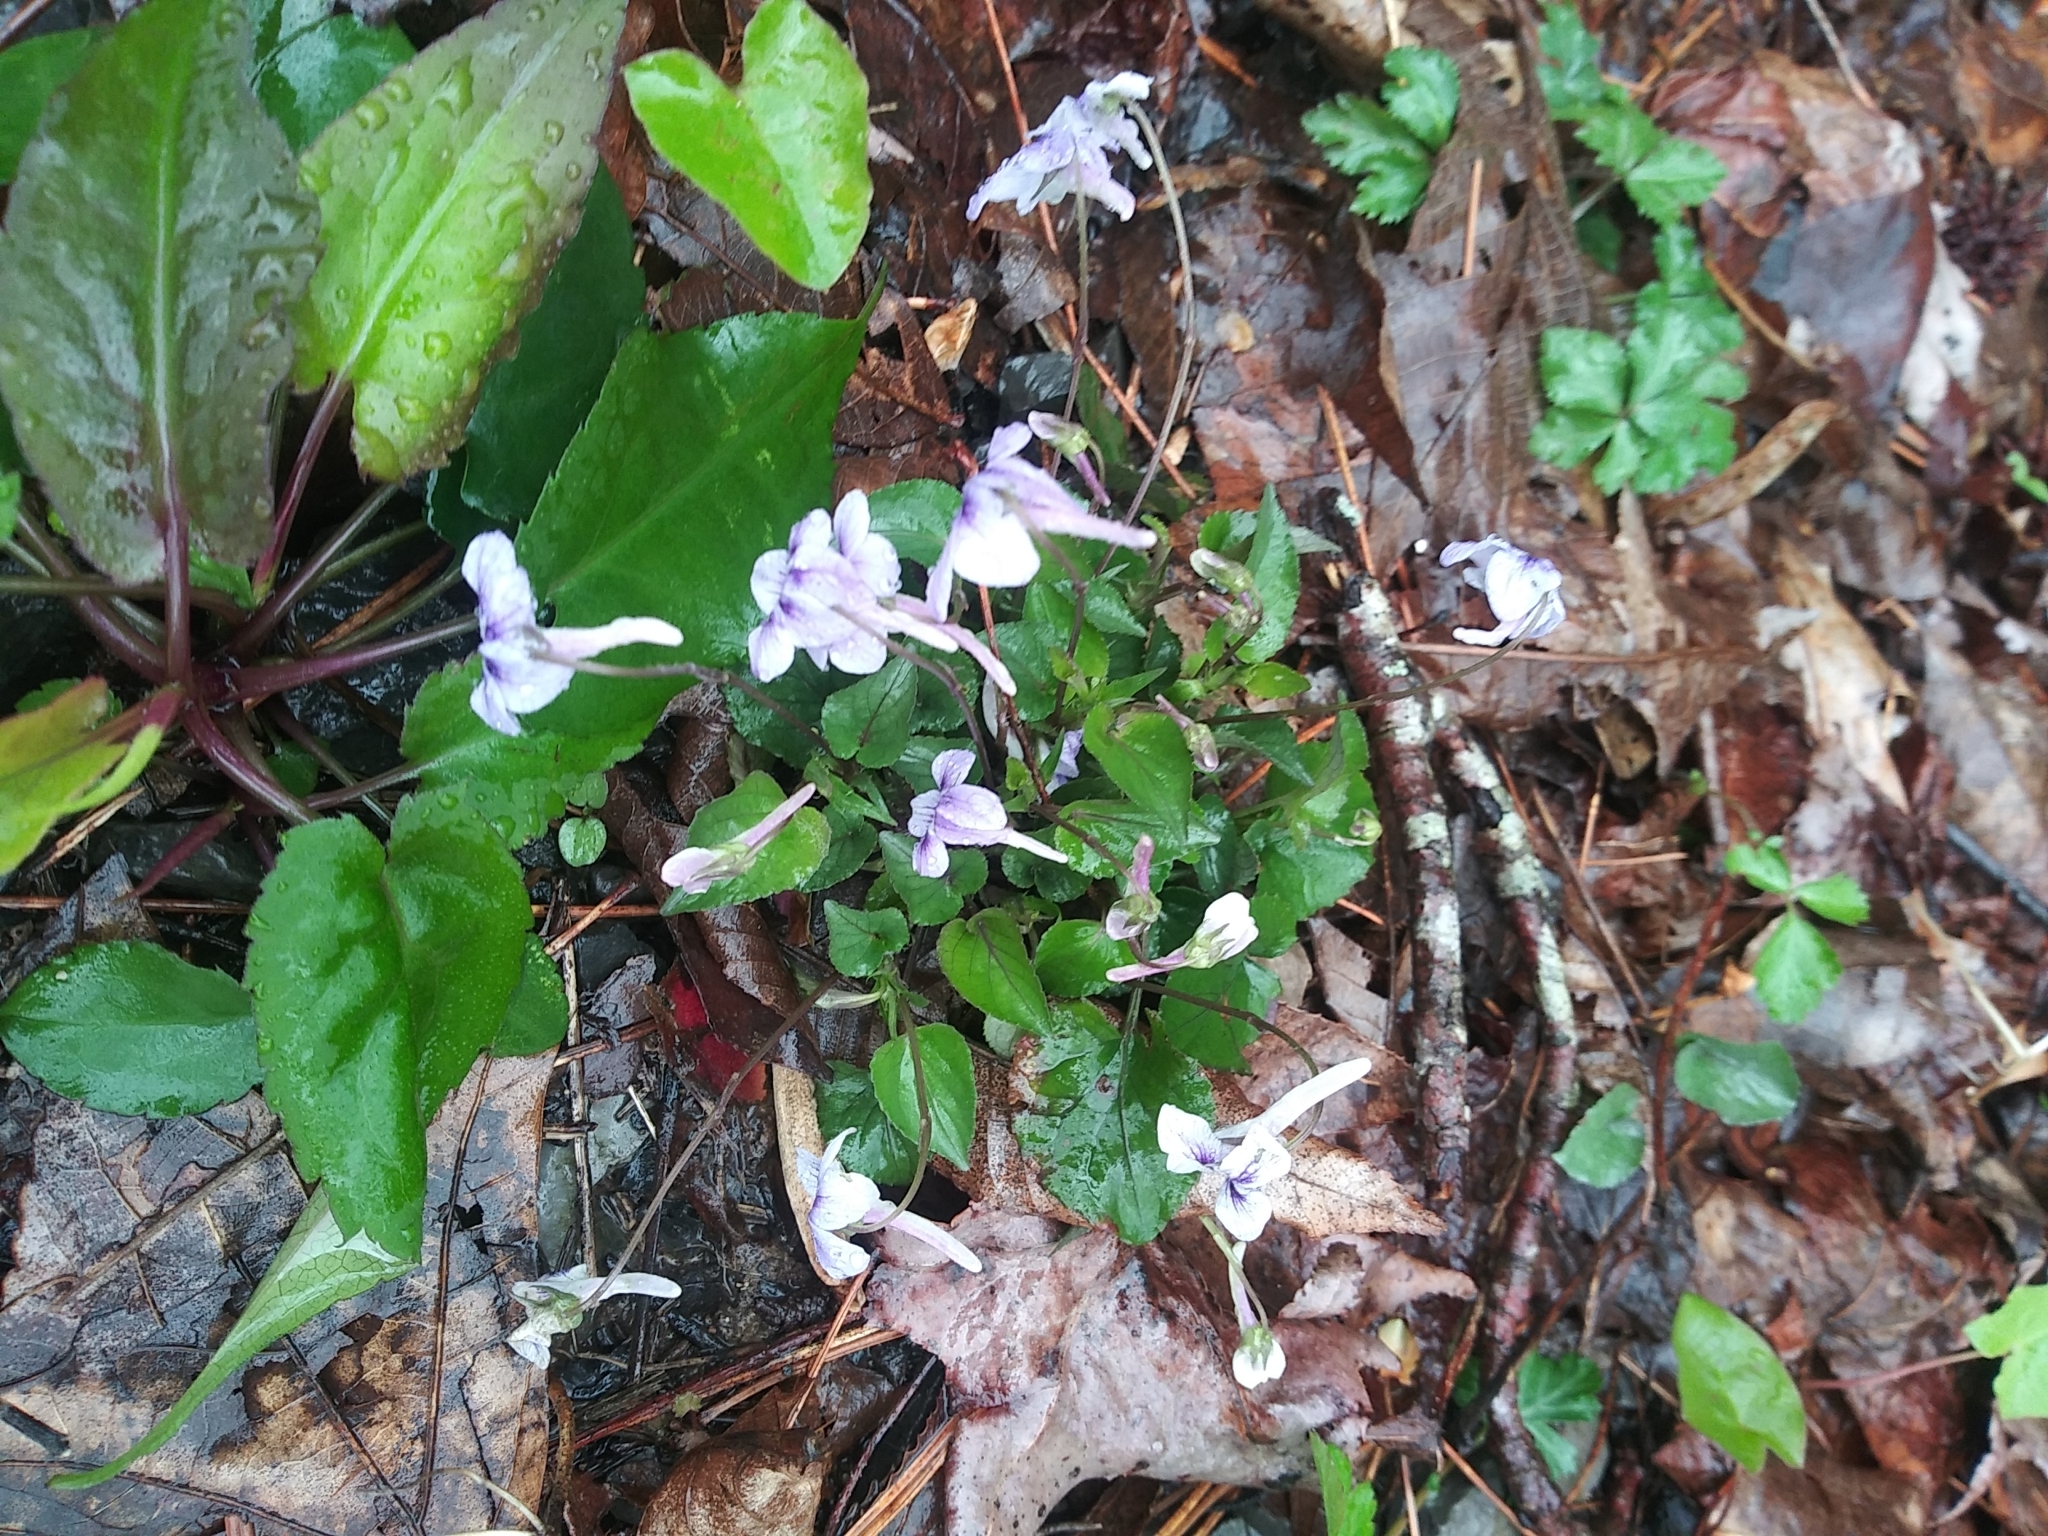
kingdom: Plantae
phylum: Tracheophyta
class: Magnoliopsida
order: Malpighiales
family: Violaceae
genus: Viola
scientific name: Viola rostrata
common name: Long-spur violet
